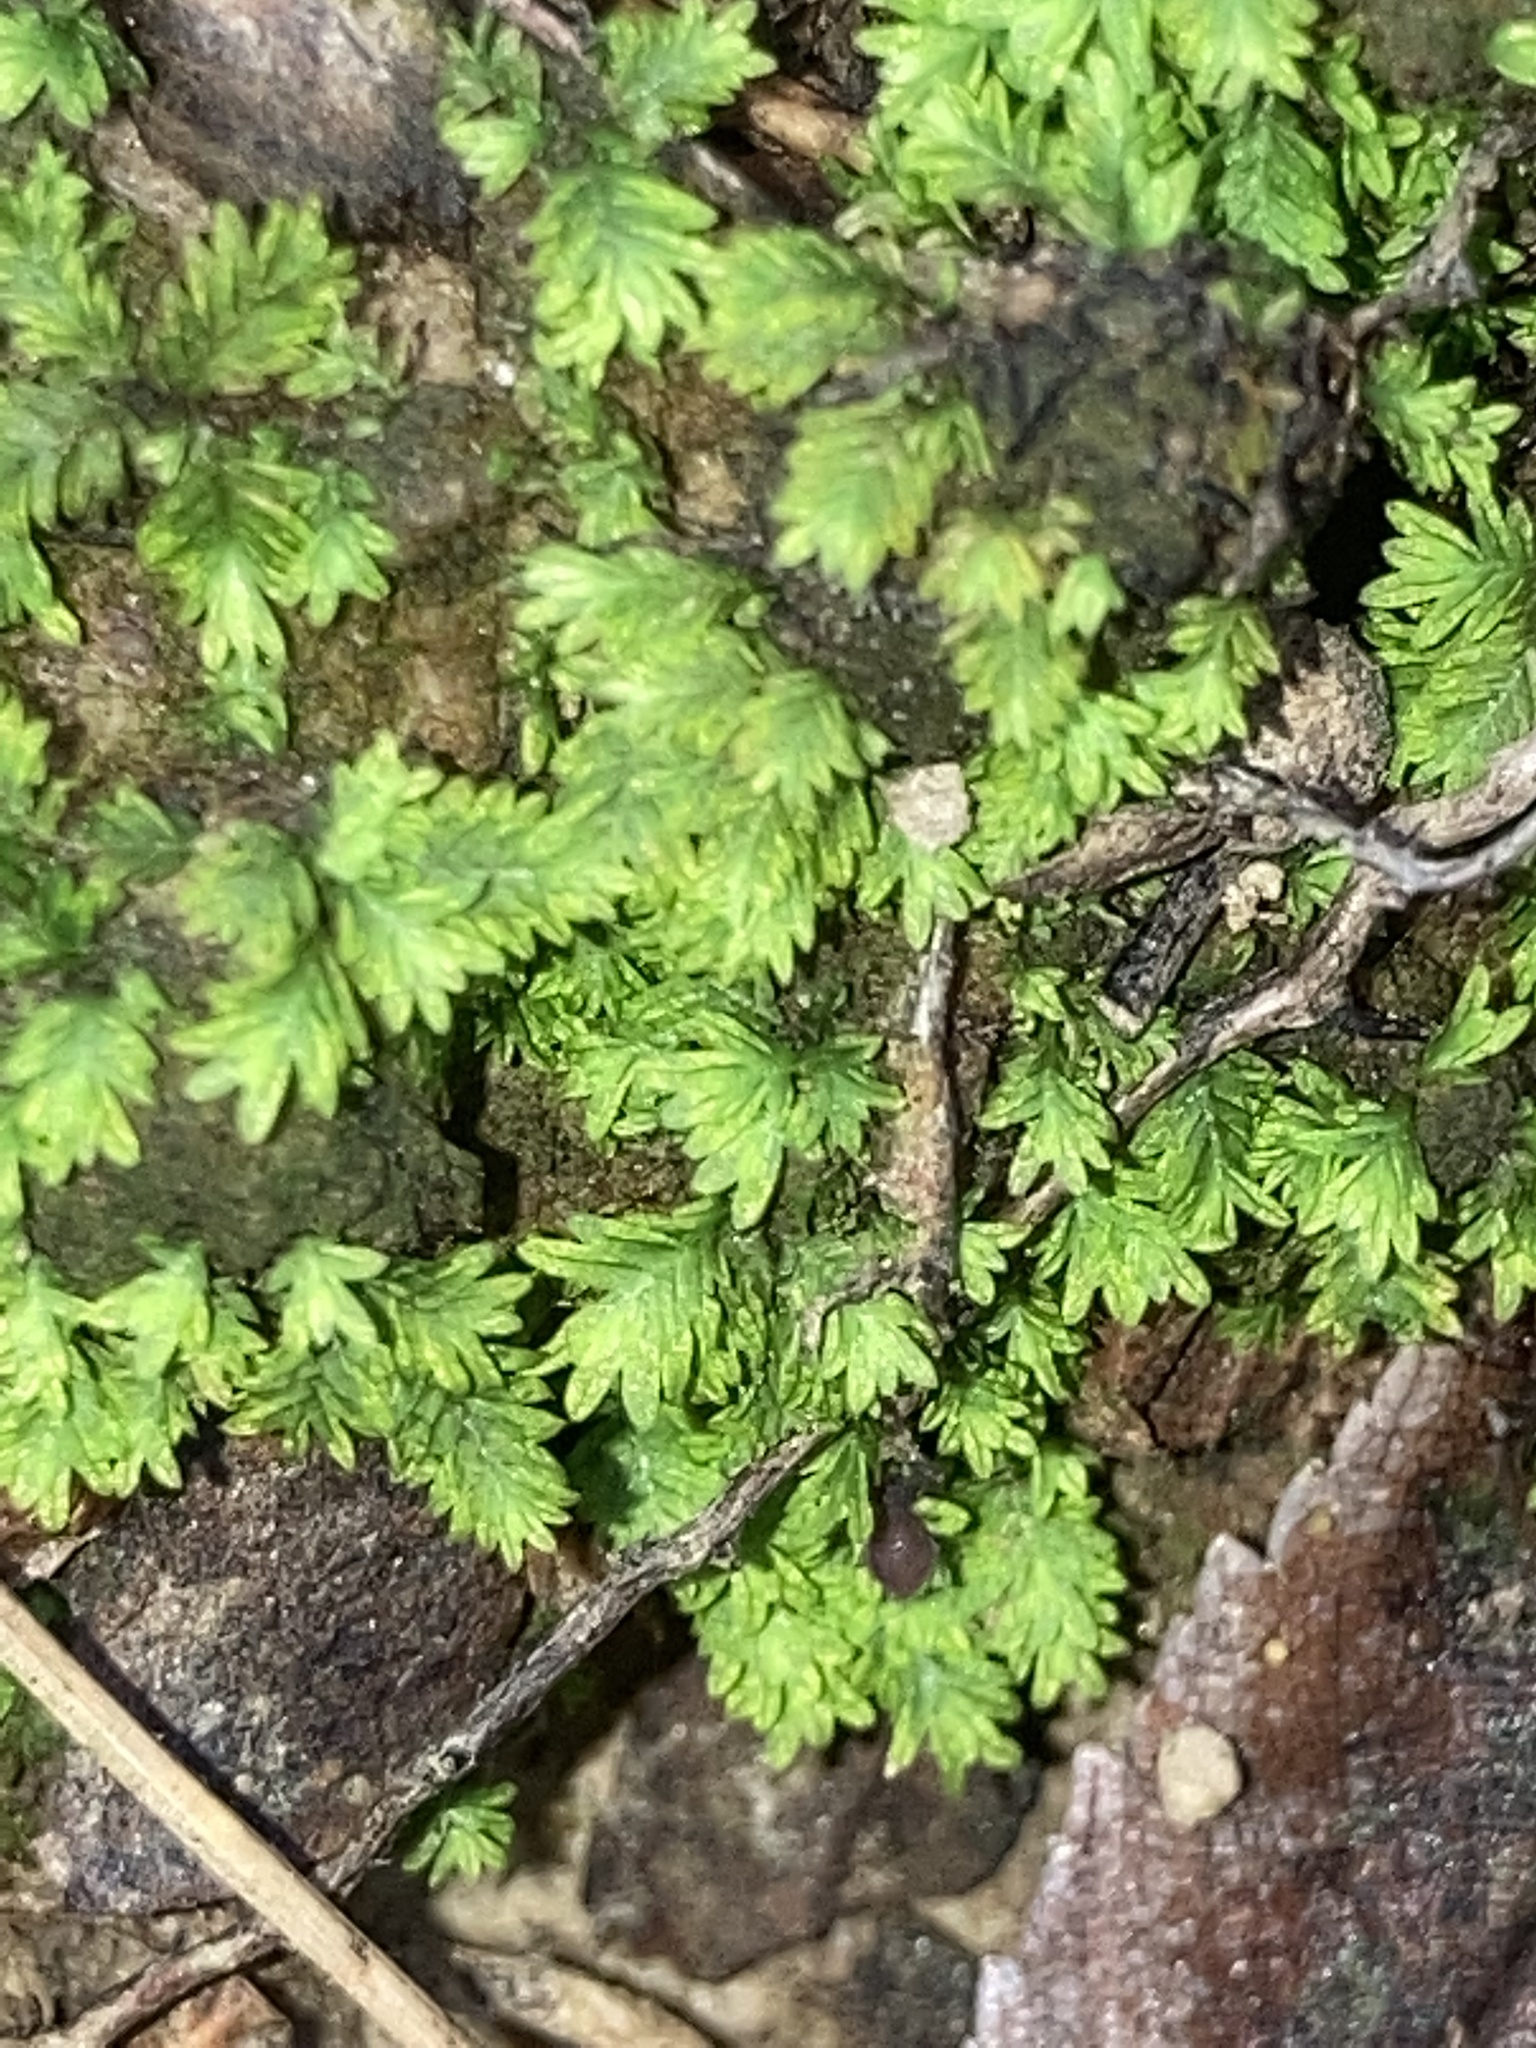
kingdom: Plantae
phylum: Bryophyta
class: Bryopsida
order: Dicranales
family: Fissidentaceae
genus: Fissidens
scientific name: Fissidens dubius
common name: Rock pocket moss
